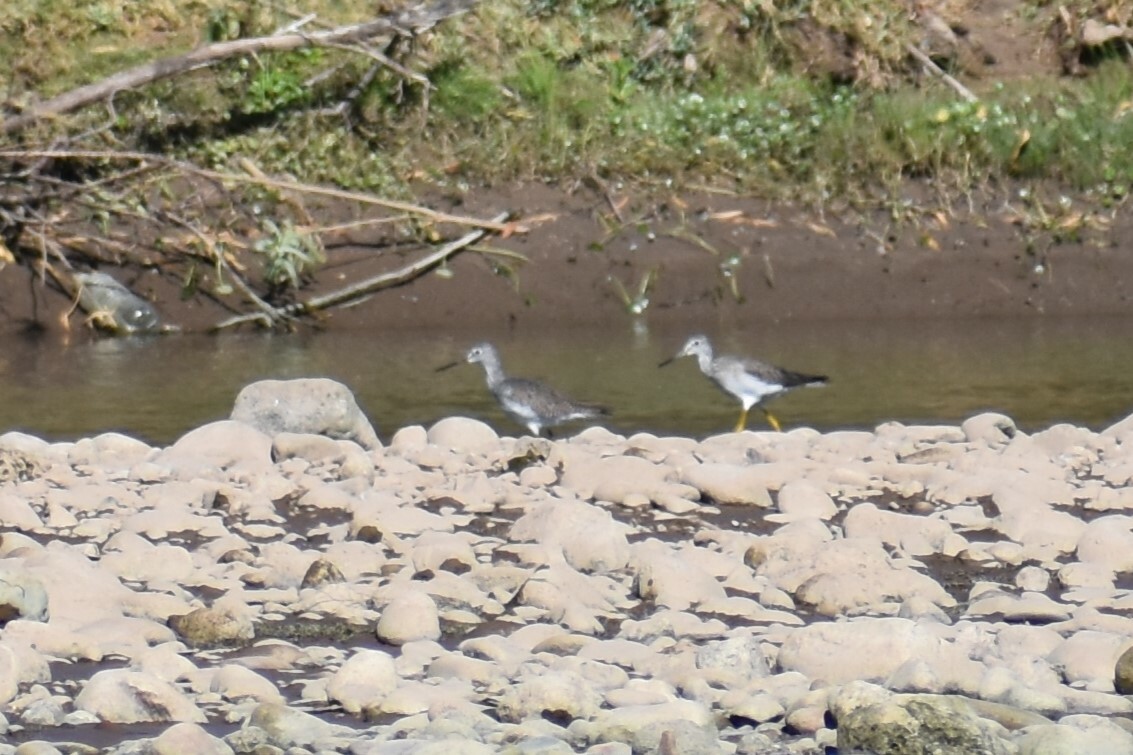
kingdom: Animalia
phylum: Chordata
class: Aves
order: Charadriiformes
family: Scolopacidae
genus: Tringa
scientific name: Tringa melanoleuca
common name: Greater yellowlegs
